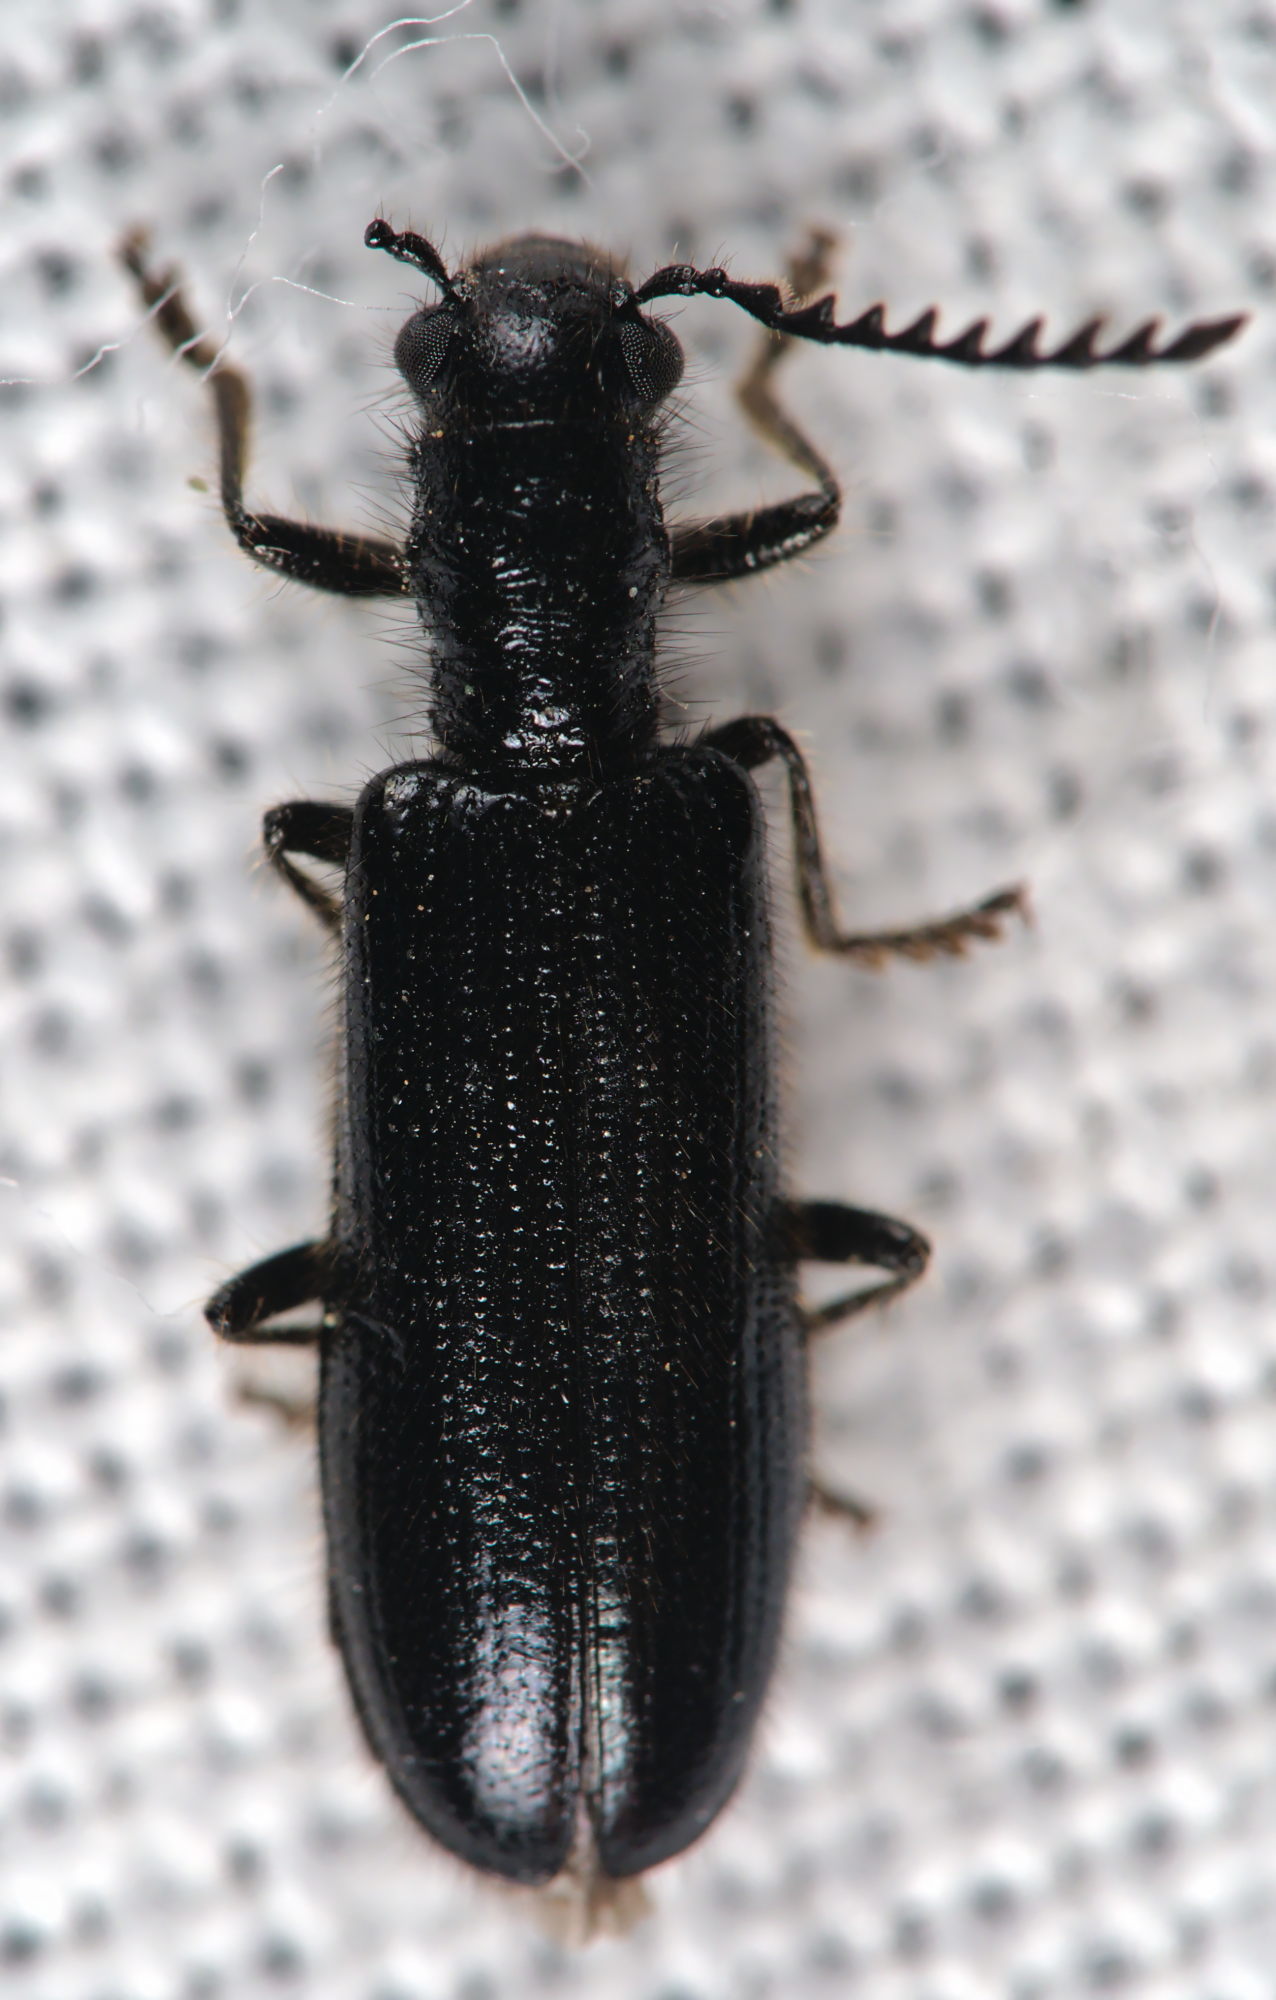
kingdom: Animalia
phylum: Arthropoda
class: Insecta
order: Coleoptera
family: Cleridae
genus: Tillus
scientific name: Tillus elongatus
